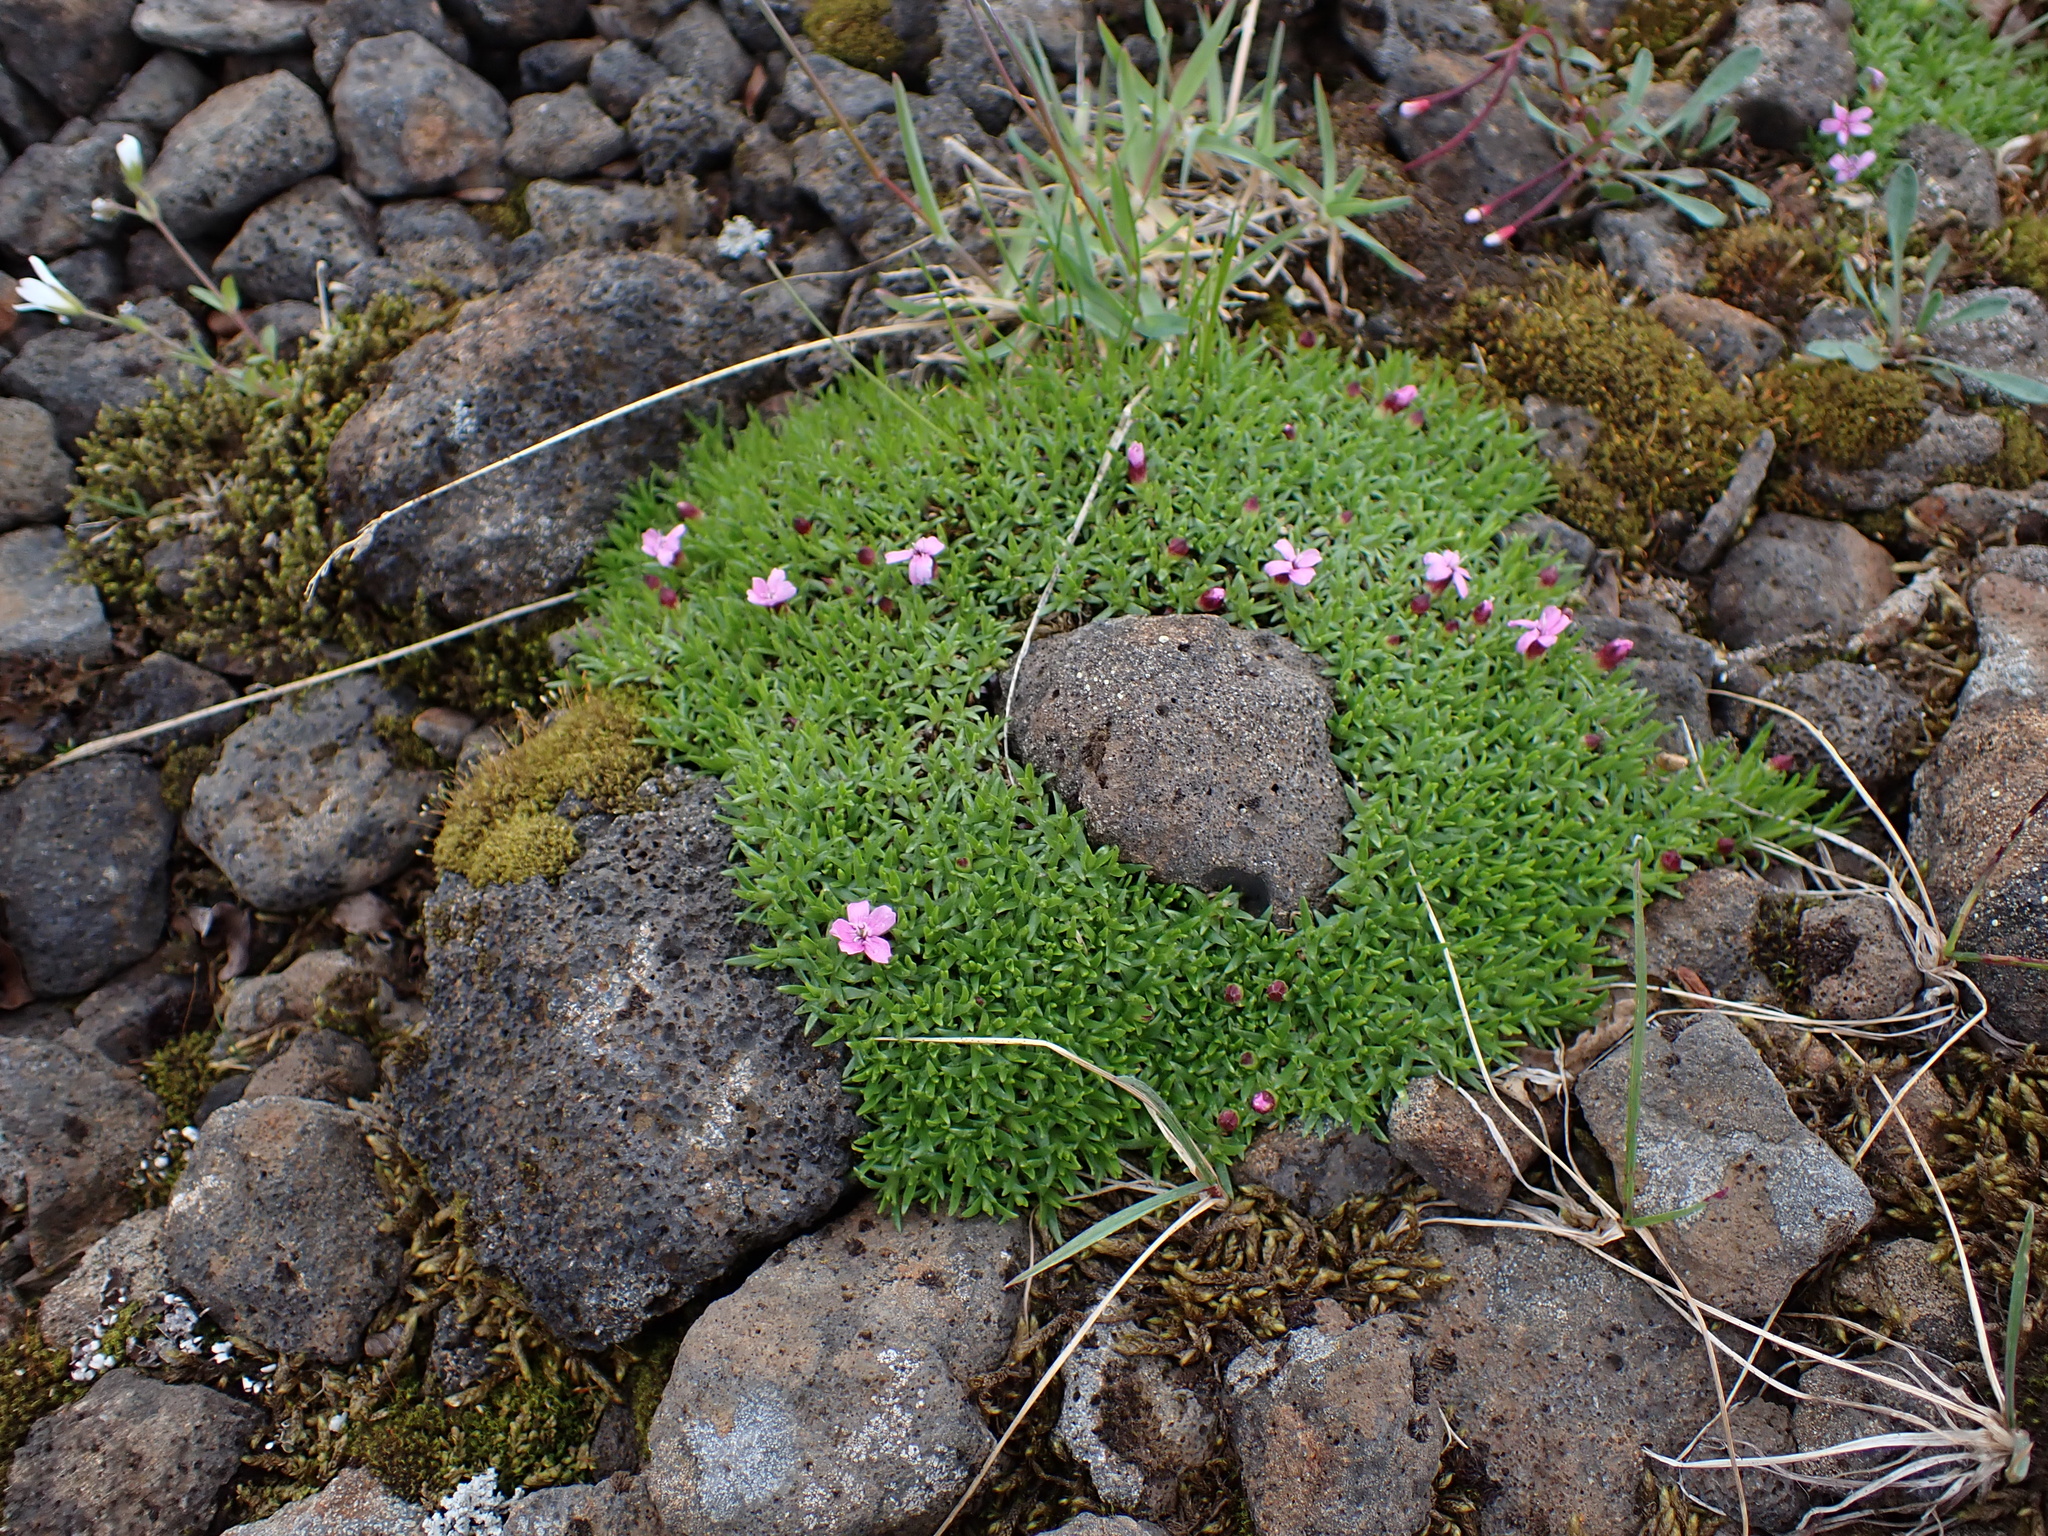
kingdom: Plantae
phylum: Tracheophyta
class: Magnoliopsida
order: Caryophyllales
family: Caryophyllaceae
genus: Silene
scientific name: Silene acaulis
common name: Moss campion
